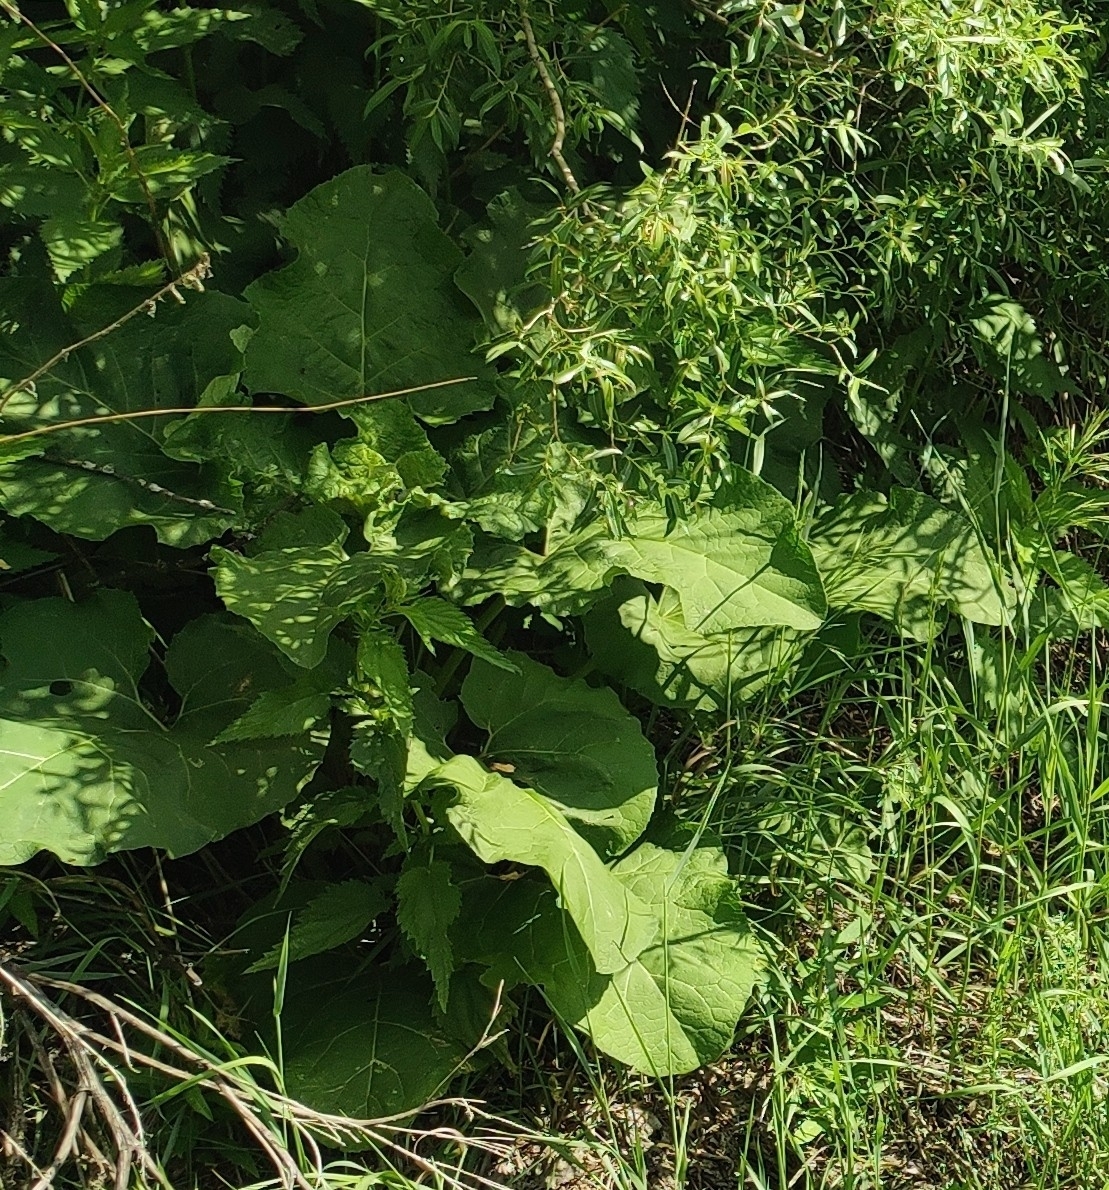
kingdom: Plantae
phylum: Tracheophyta
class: Magnoliopsida
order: Asterales
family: Asteraceae
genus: Arctium
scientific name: Arctium tomentosum
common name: Woolly burdock
